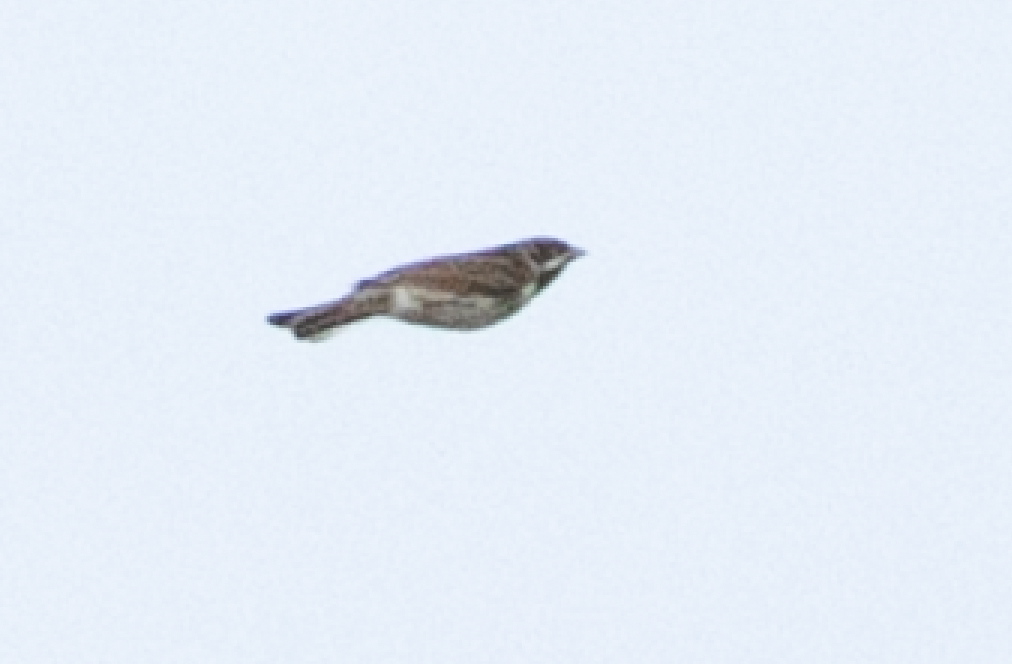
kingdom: Animalia
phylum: Chordata
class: Aves
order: Passeriformes
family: Emberizidae
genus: Emberiza
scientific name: Emberiza schoeniclus
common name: Reed bunting
